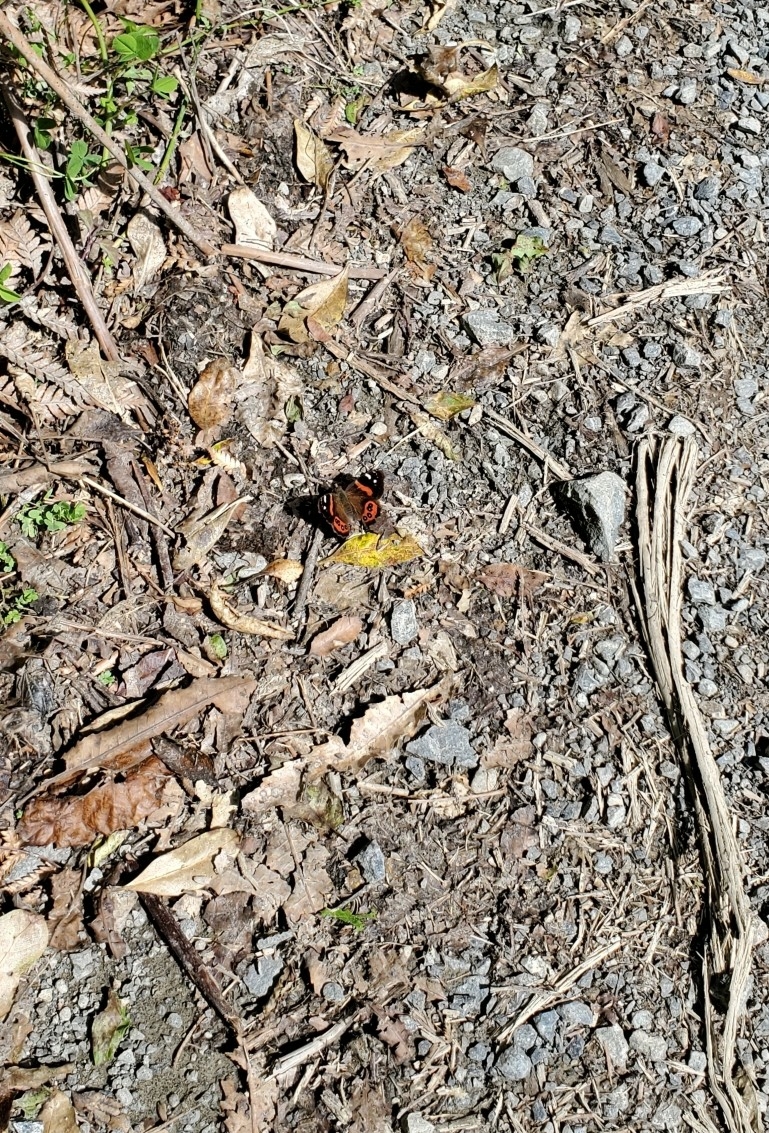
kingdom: Animalia
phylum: Arthropoda
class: Insecta
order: Lepidoptera
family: Nymphalidae
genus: Vanessa
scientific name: Vanessa gonerilla
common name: New zealand red admiral
